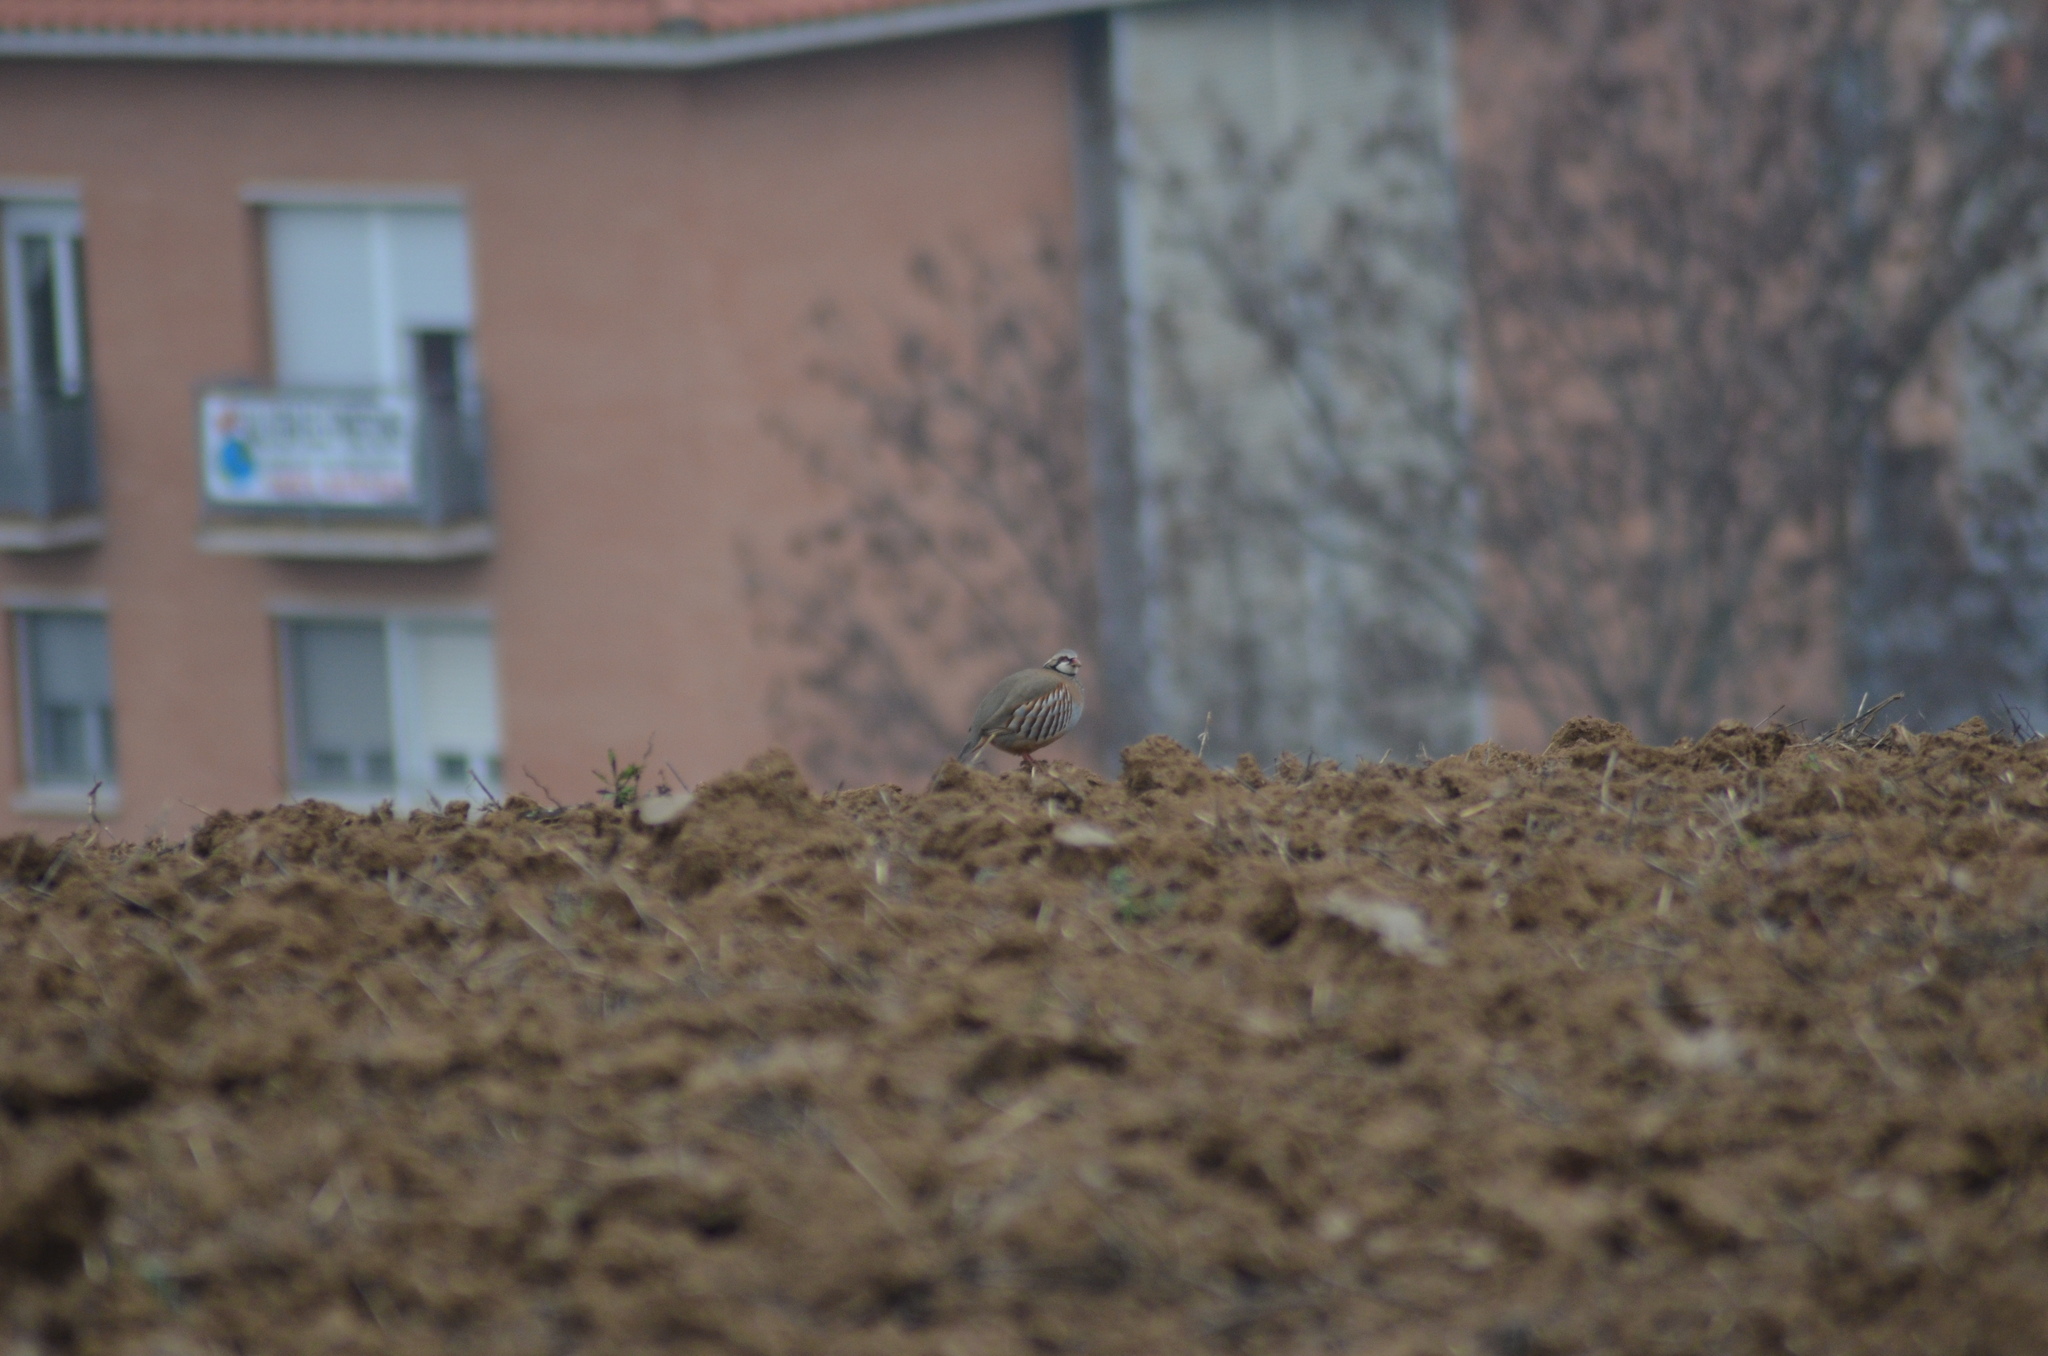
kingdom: Animalia
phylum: Chordata
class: Aves
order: Galliformes
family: Phasianidae
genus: Alectoris
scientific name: Alectoris rufa
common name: Red-legged partridge
